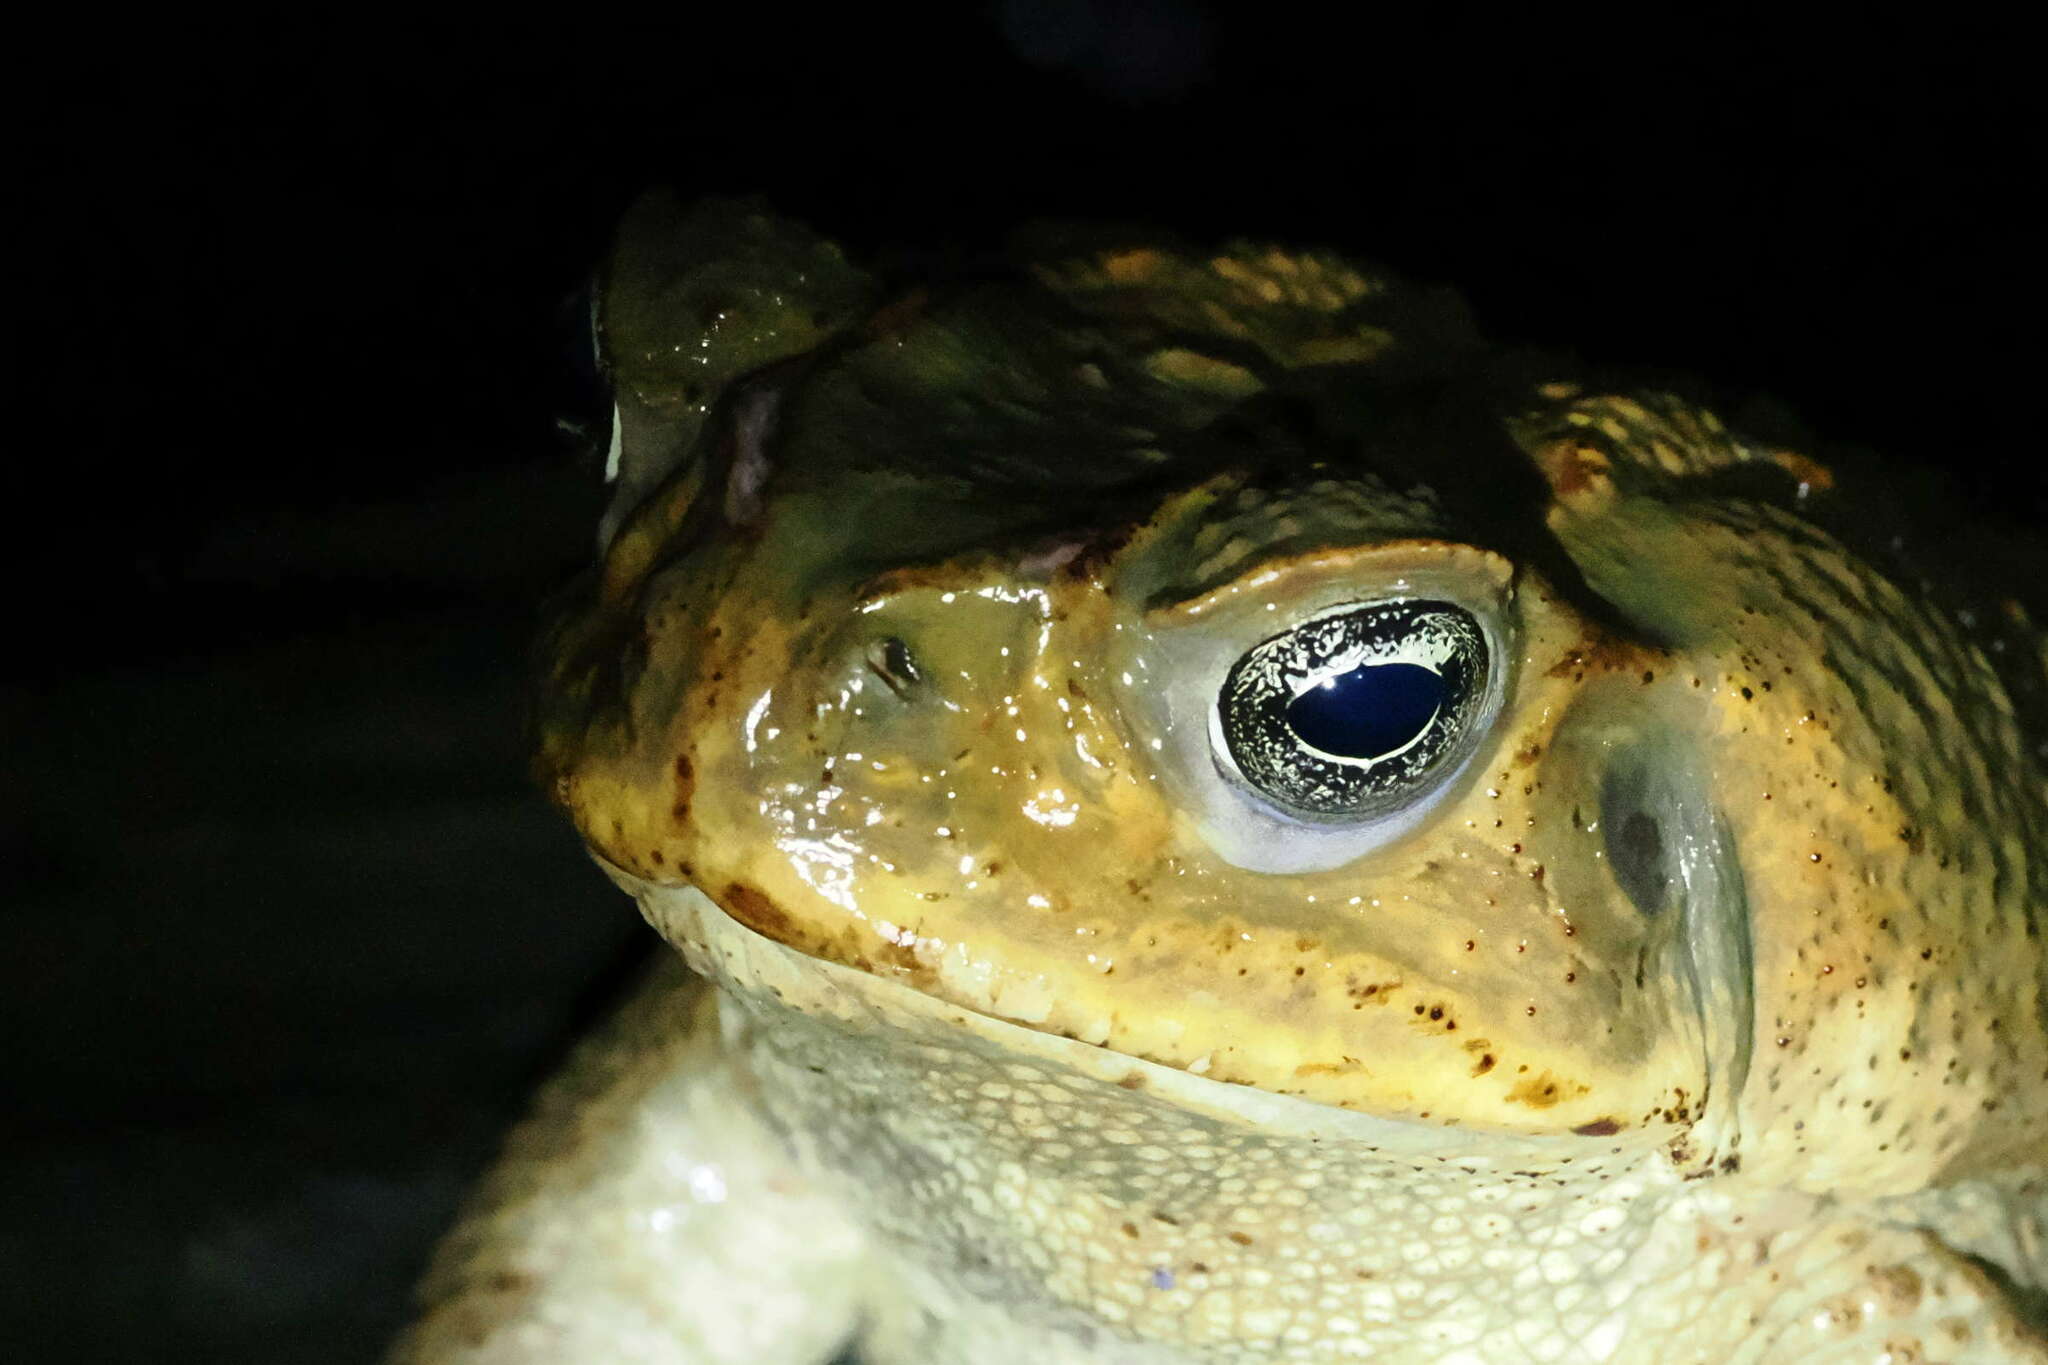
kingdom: Animalia
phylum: Chordata
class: Amphibia
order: Anura
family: Bufonidae
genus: Rhinella
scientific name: Rhinella marina
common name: Cane toad
